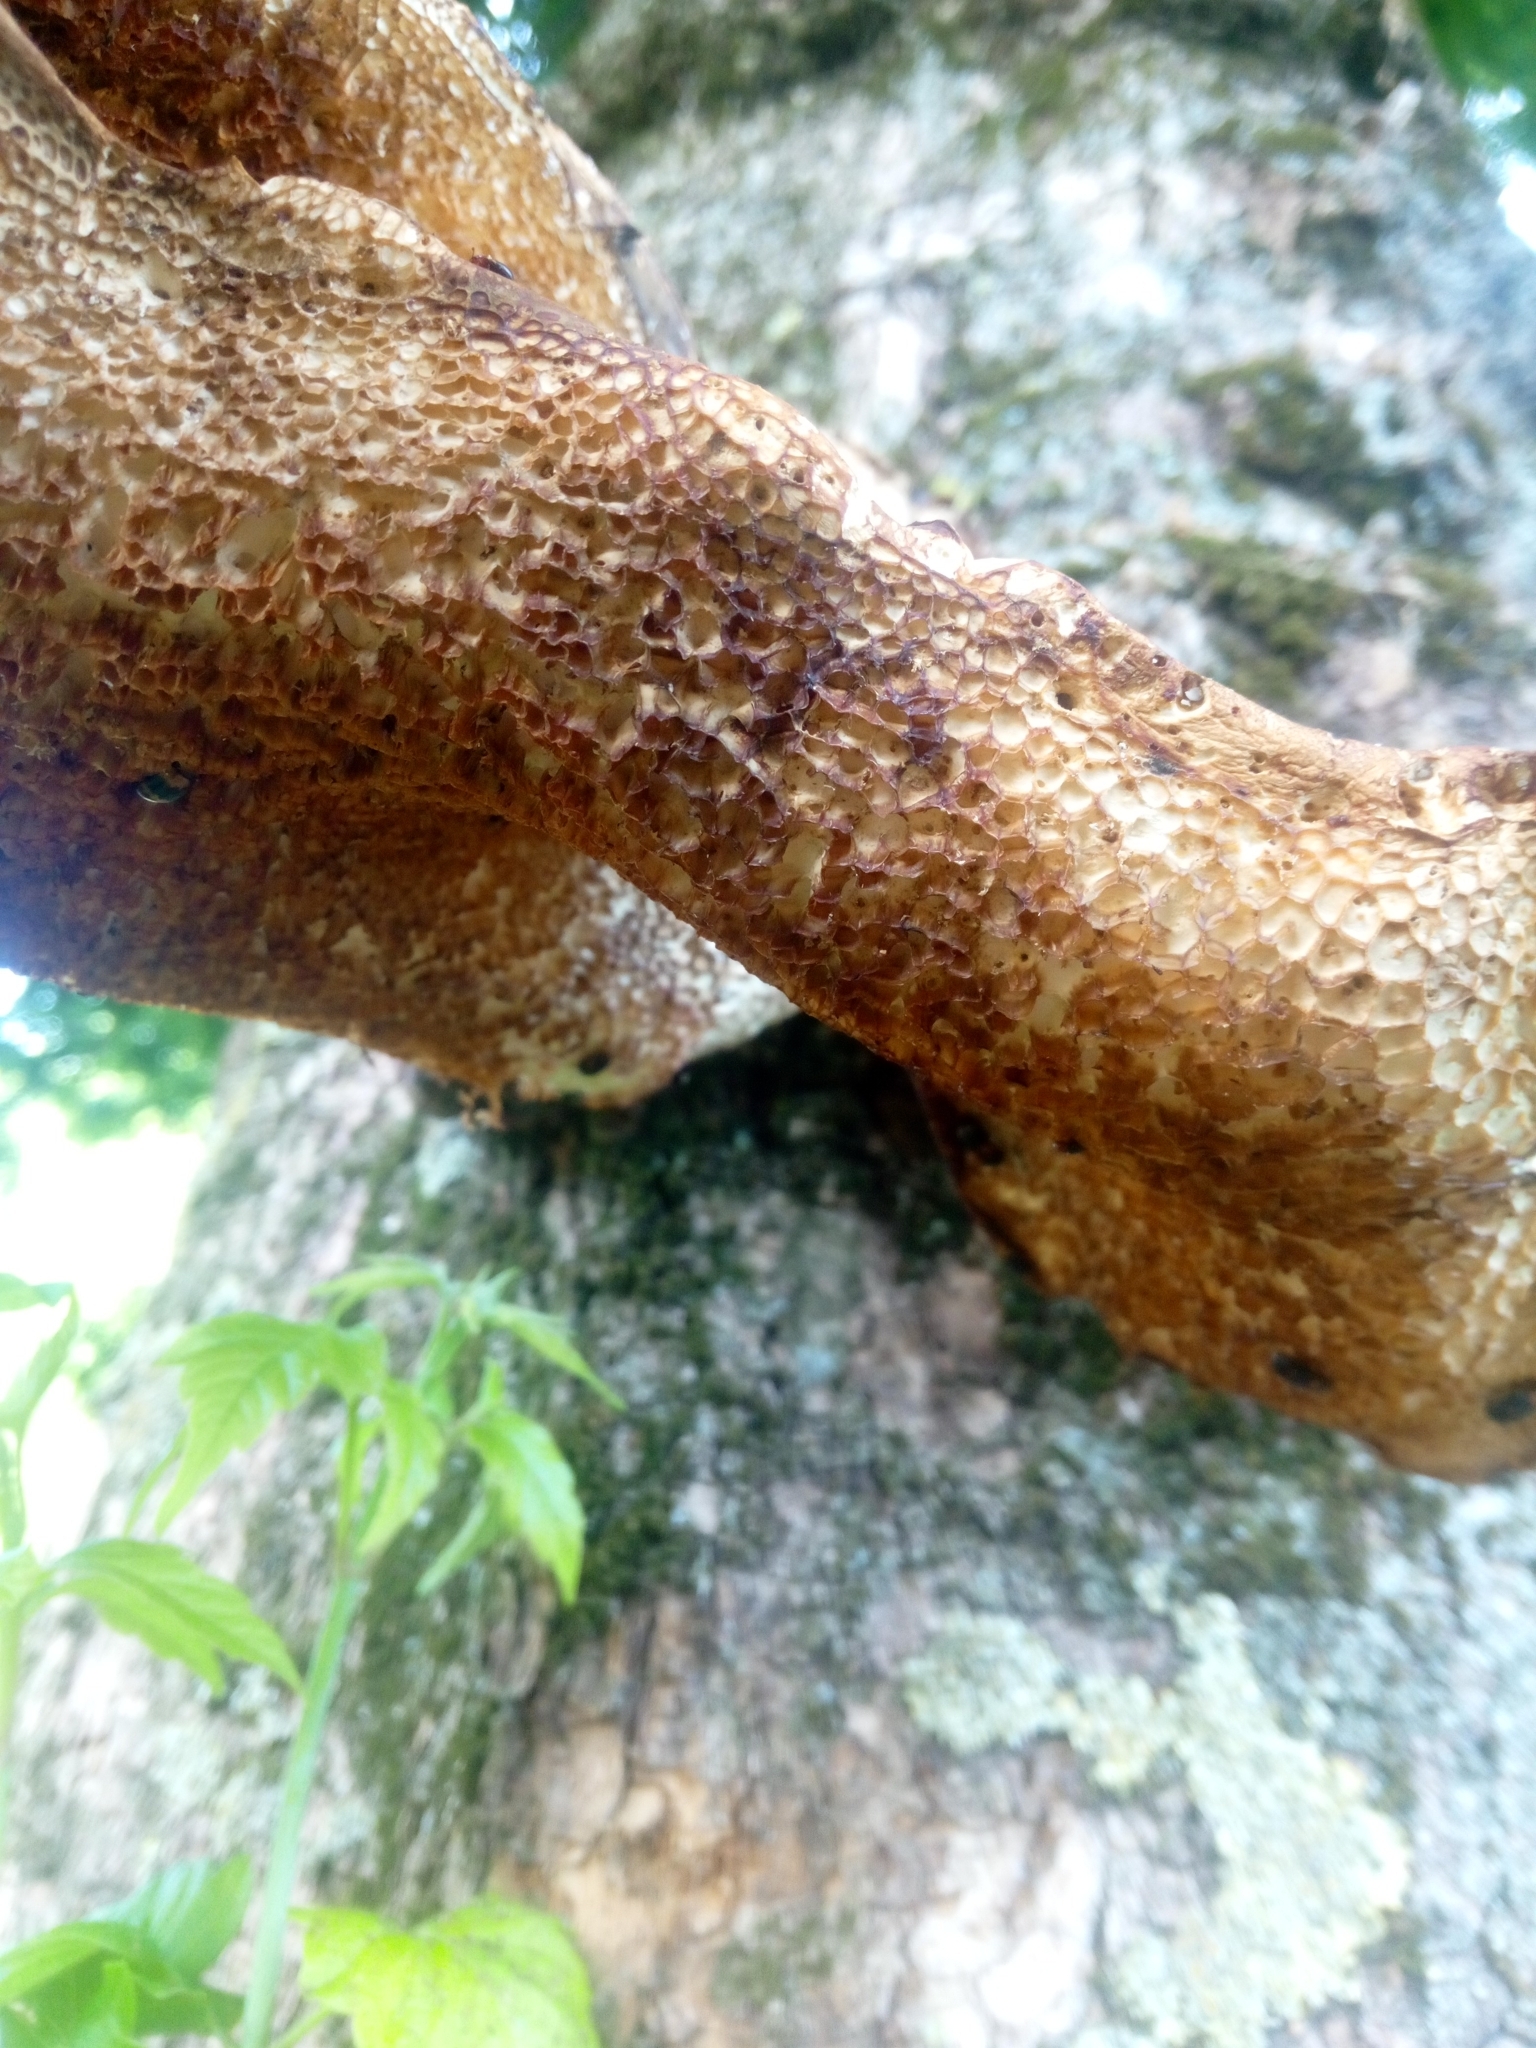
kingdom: Fungi
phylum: Basidiomycota
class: Agaricomycetes
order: Polyporales
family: Polyporaceae
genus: Cerioporus
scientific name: Cerioporus squamosus
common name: Dryad's saddle
